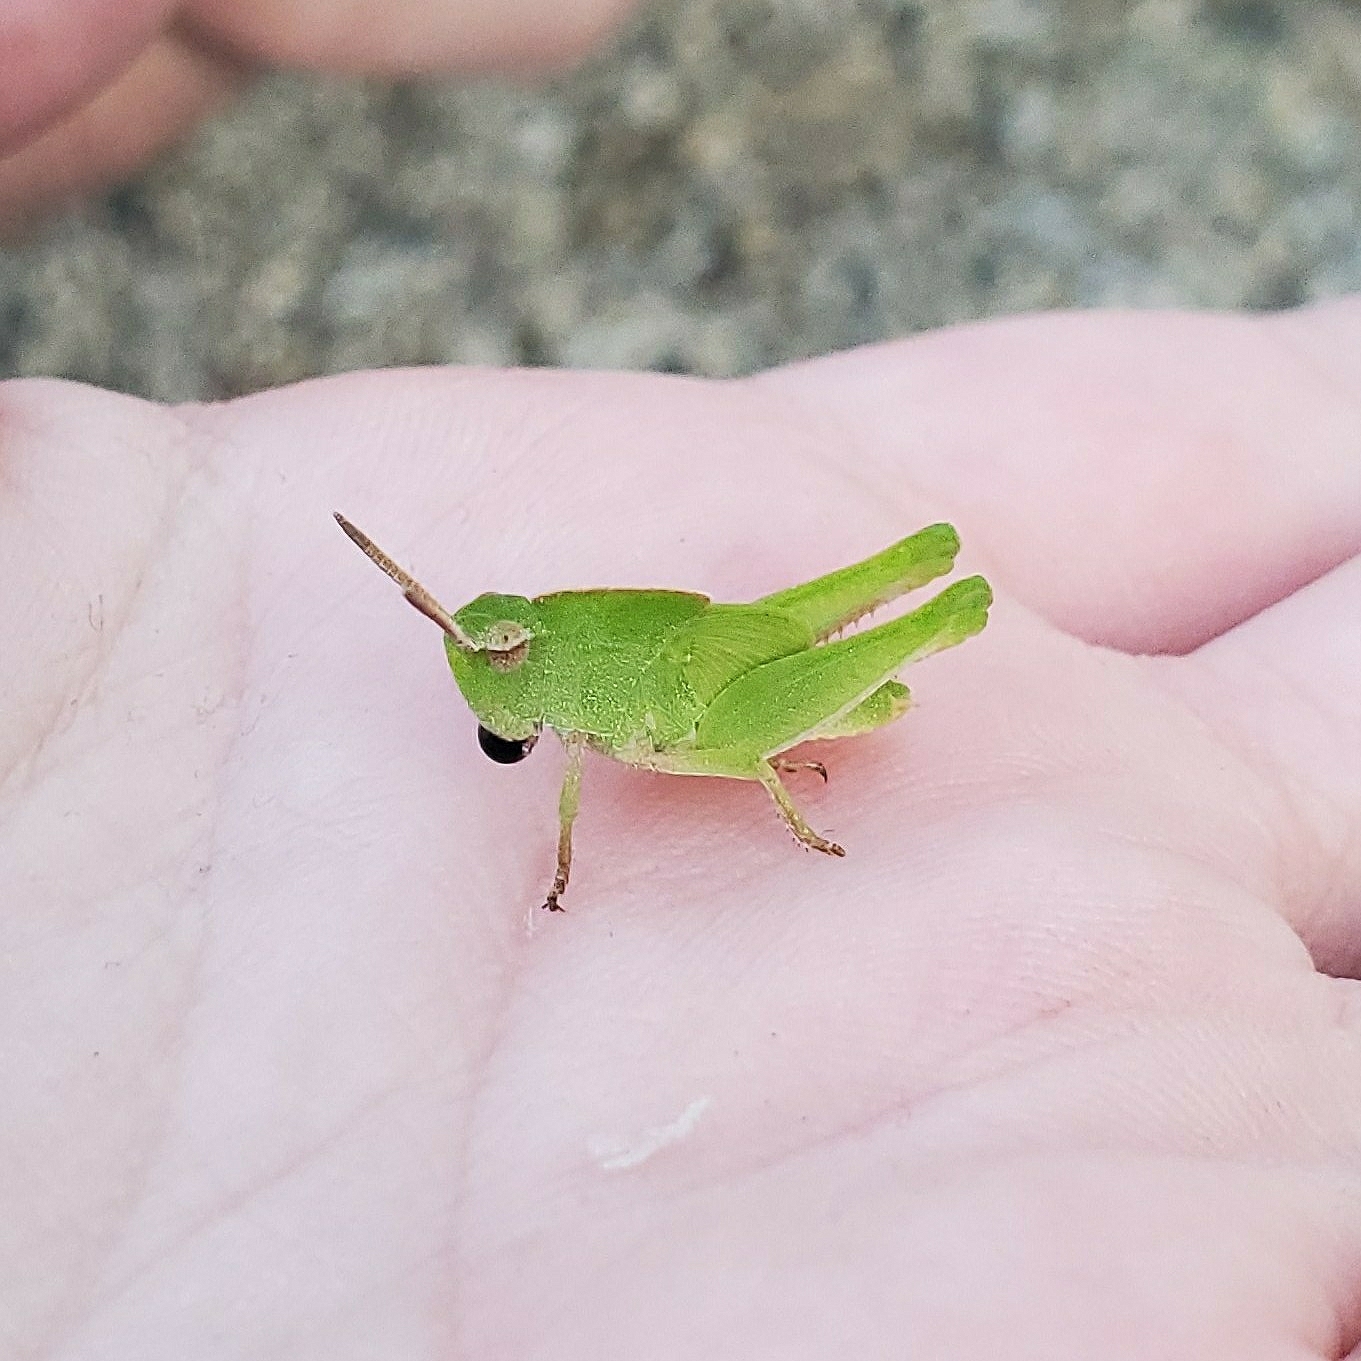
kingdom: Animalia
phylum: Arthropoda
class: Insecta
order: Orthoptera
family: Acrididae
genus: Chortophaga
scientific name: Chortophaga viridifasciata
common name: Green-striped grasshopper
